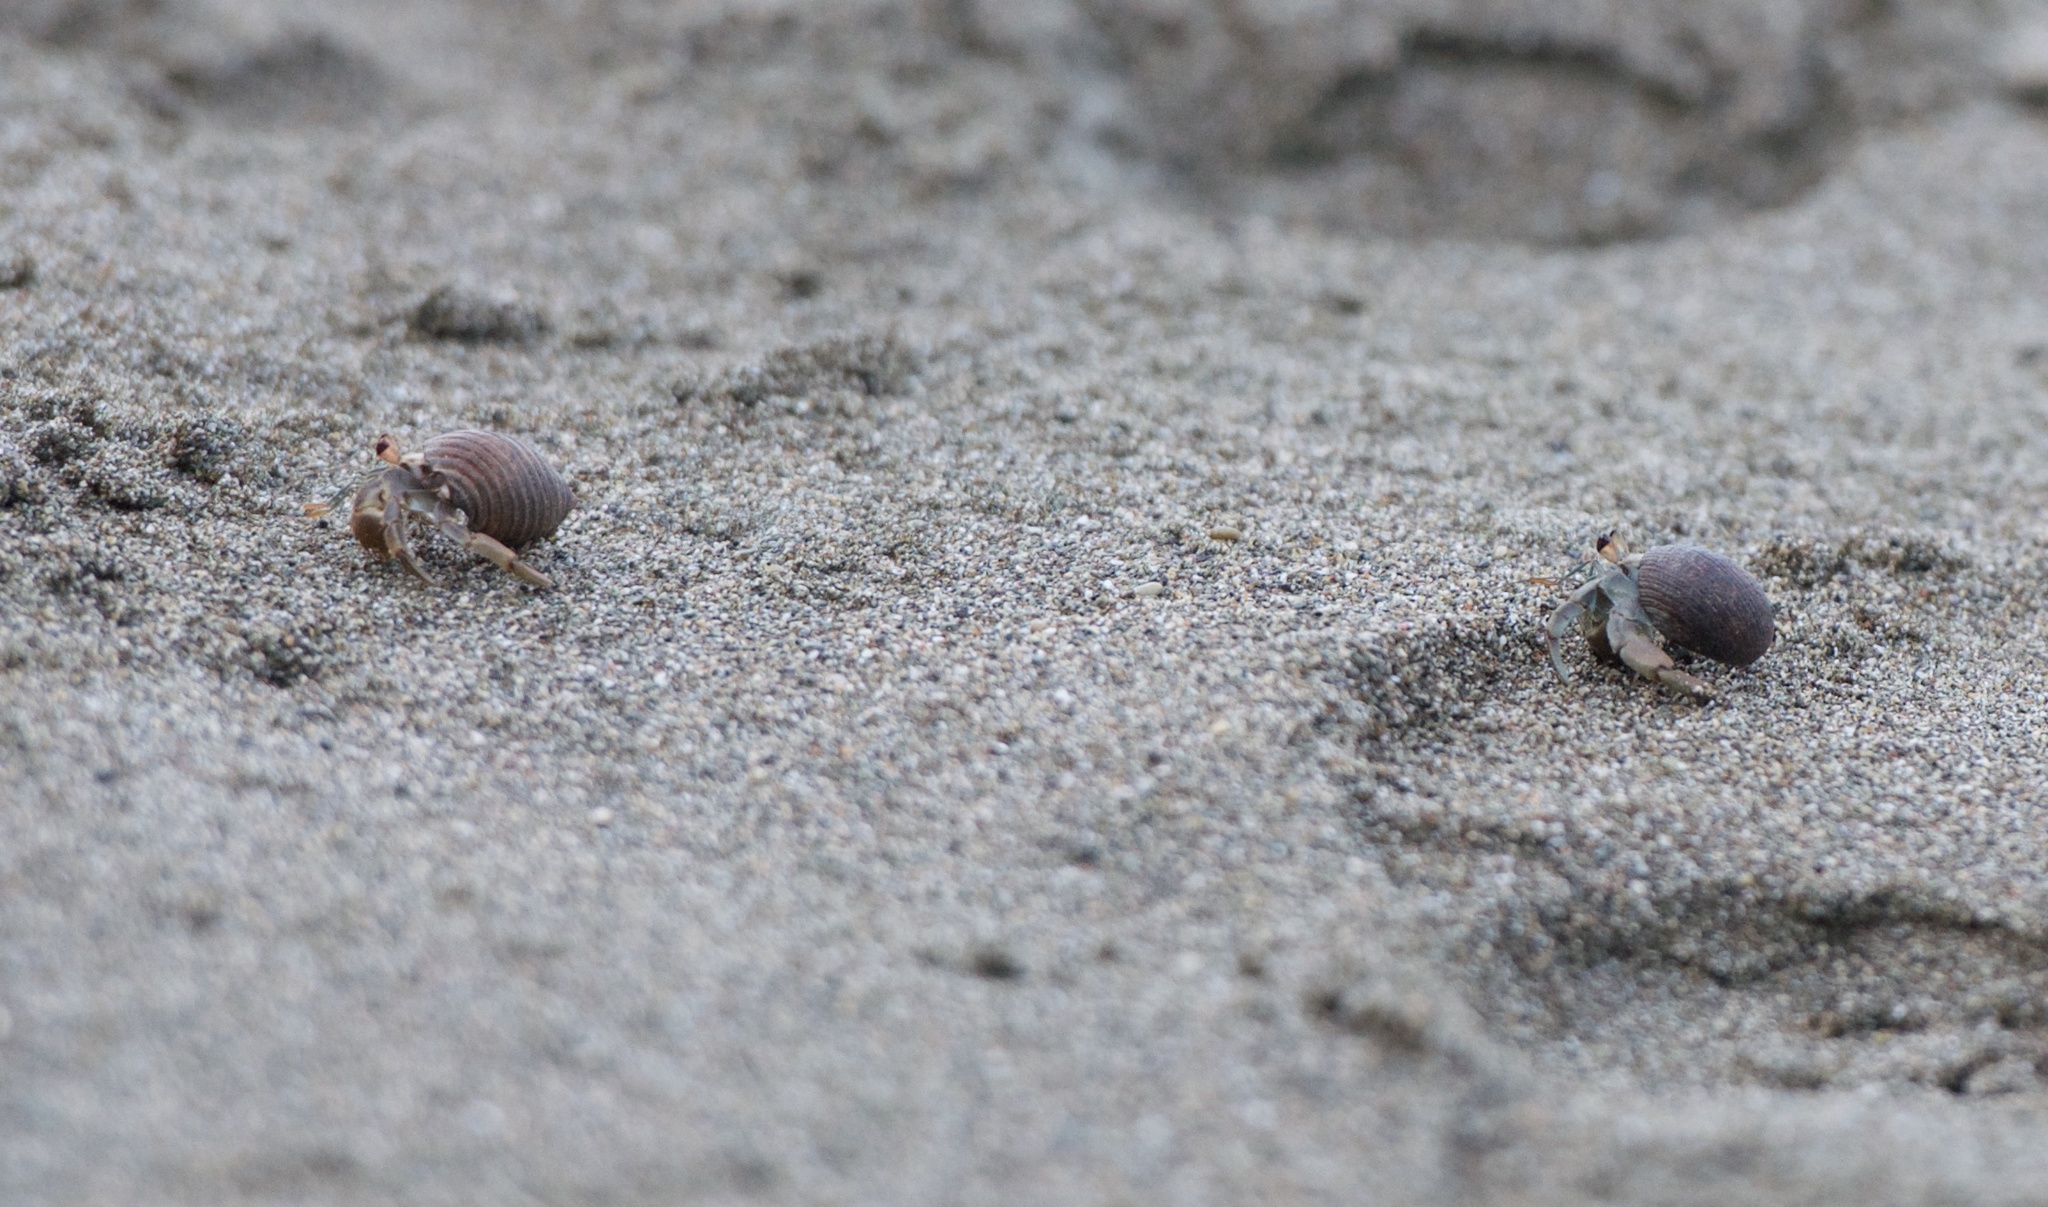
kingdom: Animalia
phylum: Arthropoda
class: Malacostraca
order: Decapoda
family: Coenobitidae
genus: Coenobita
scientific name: Coenobita compressus
